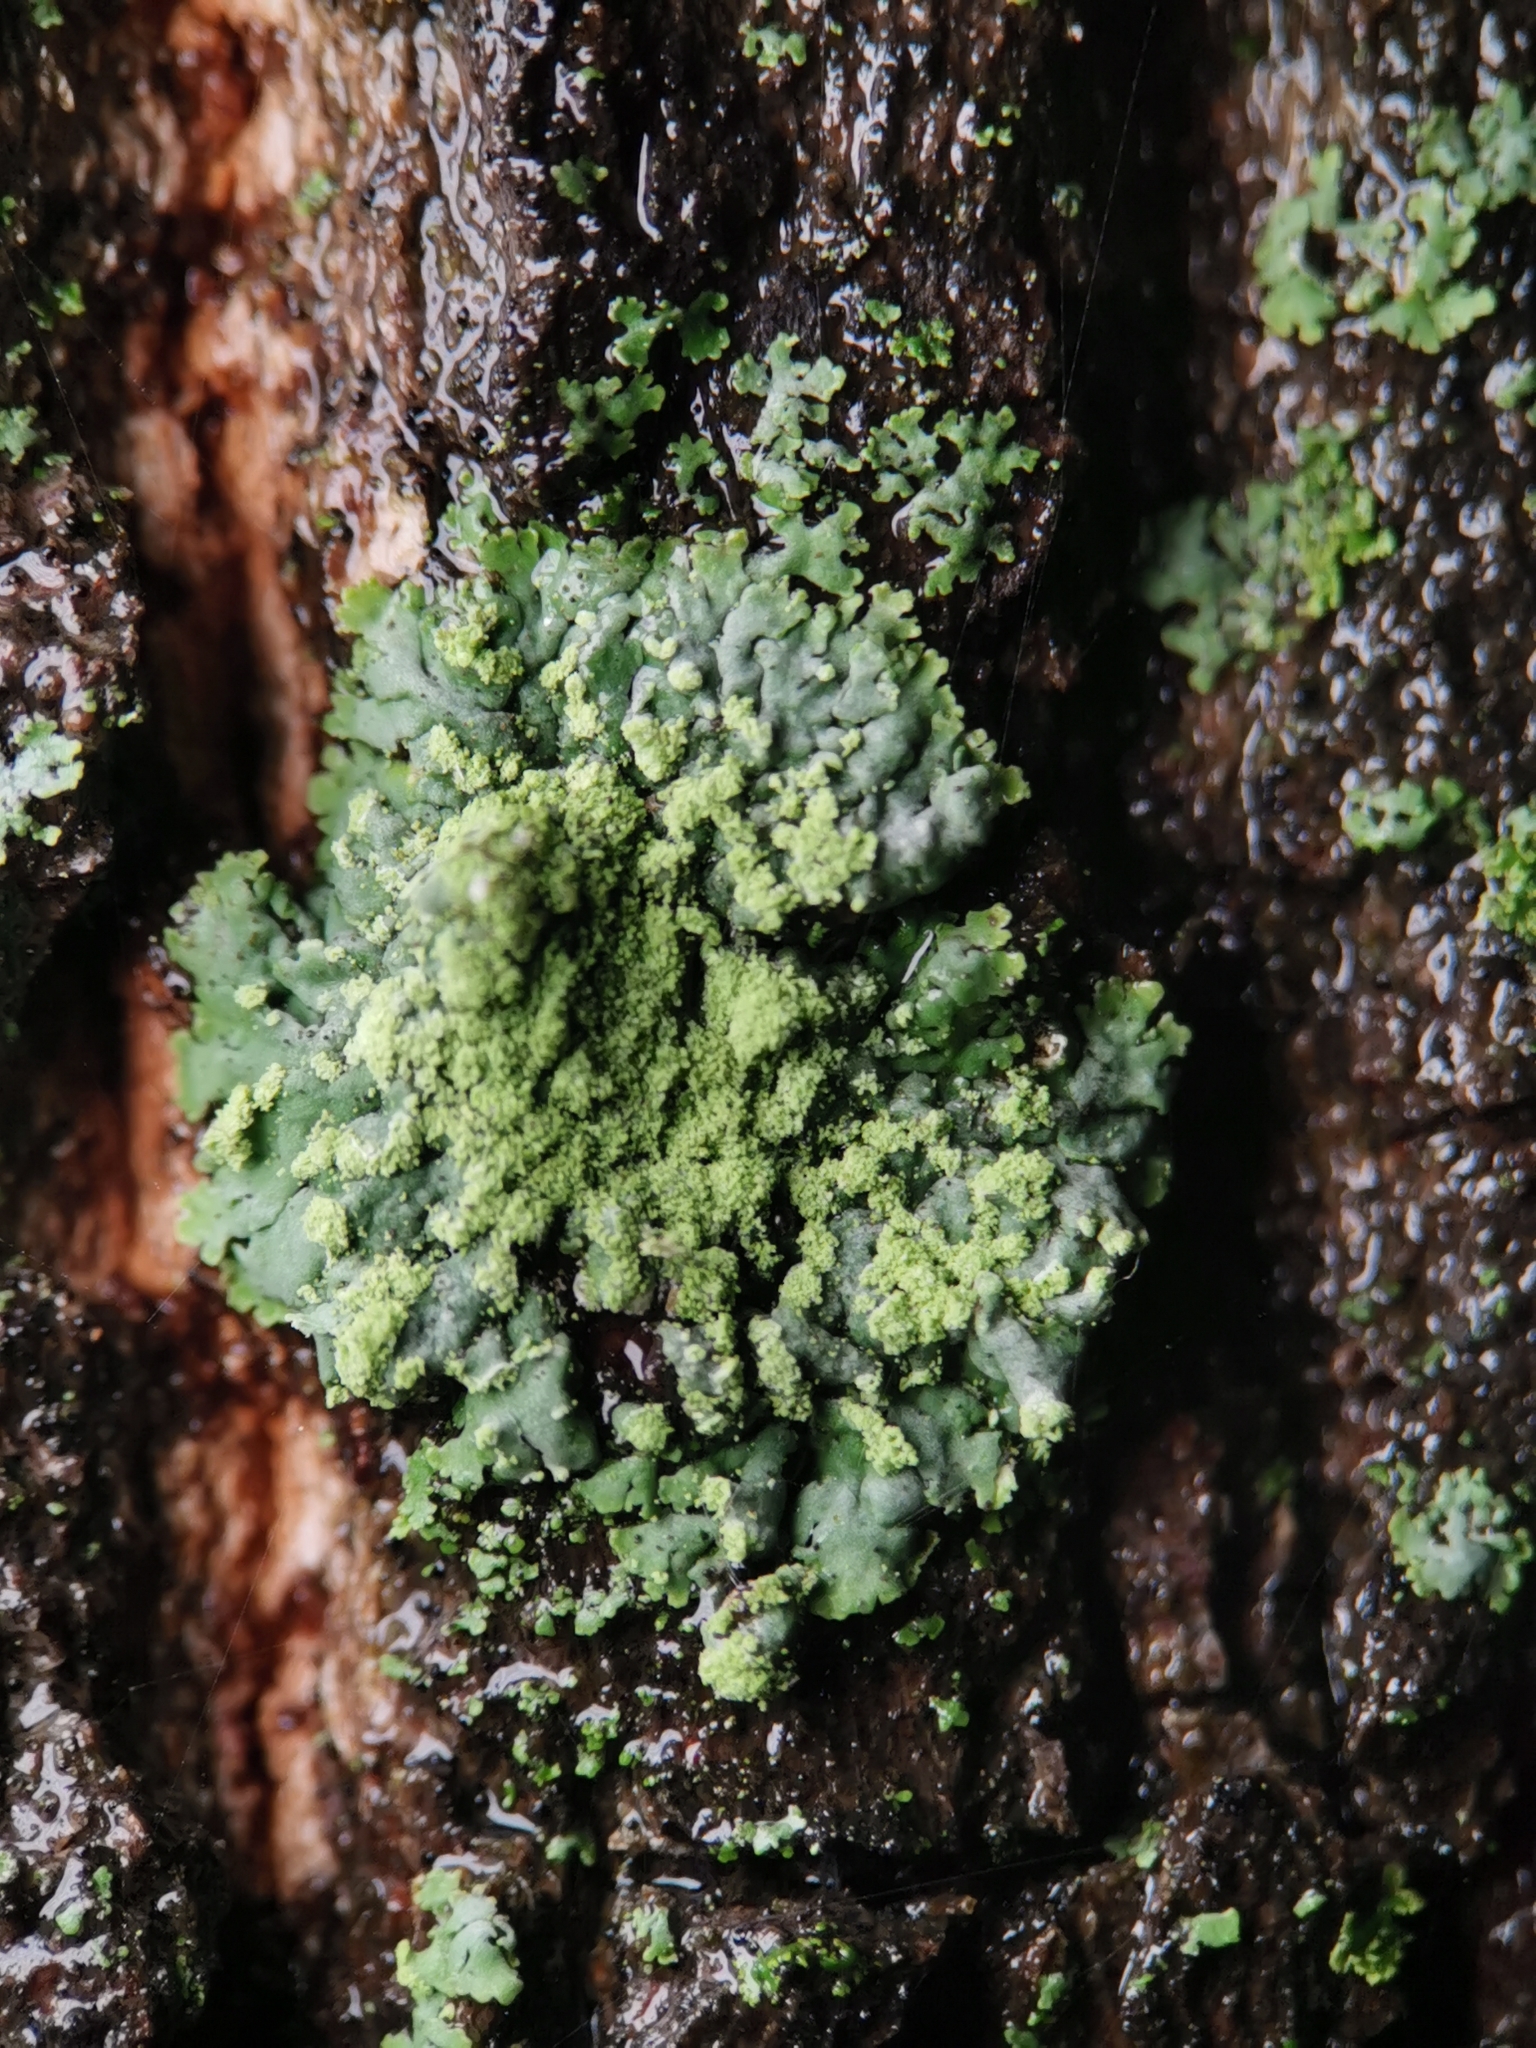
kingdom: Fungi
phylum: Ascomycota
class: Lecanoromycetes
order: Caliciales
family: Physciaceae
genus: Phaeophyscia
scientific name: Phaeophyscia orbicularis
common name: Mealy shadow lichen
